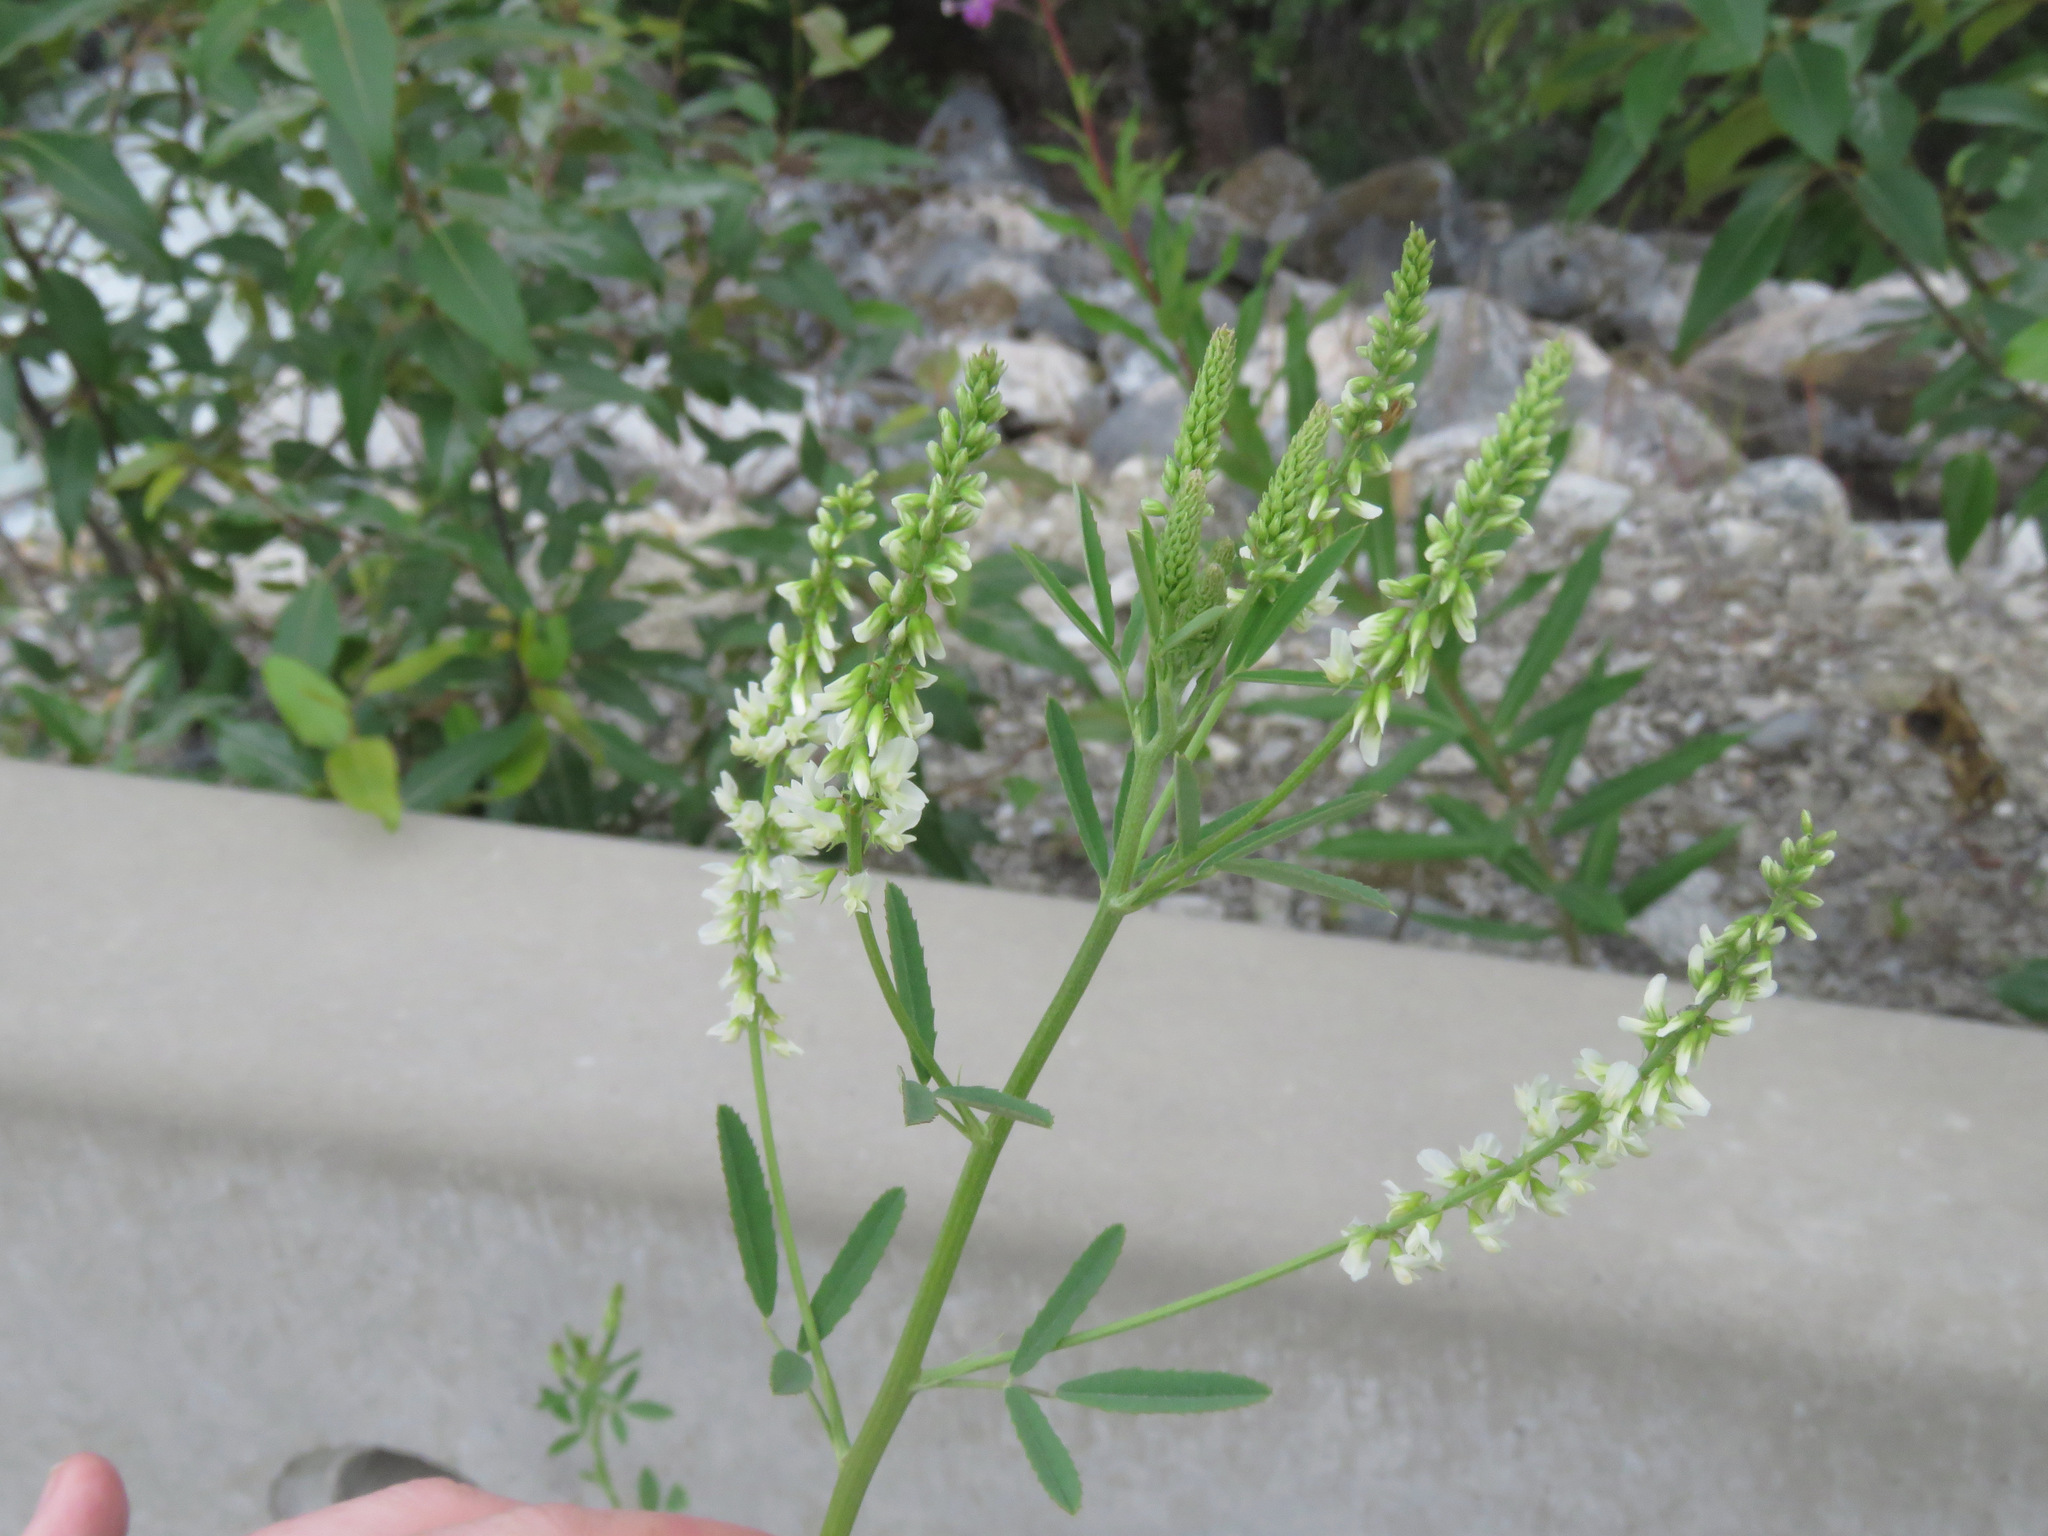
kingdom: Plantae
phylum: Tracheophyta
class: Magnoliopsida
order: Fabales
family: Fabaceae
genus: Melilotus
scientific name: Melilotus albus
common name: White melilot
